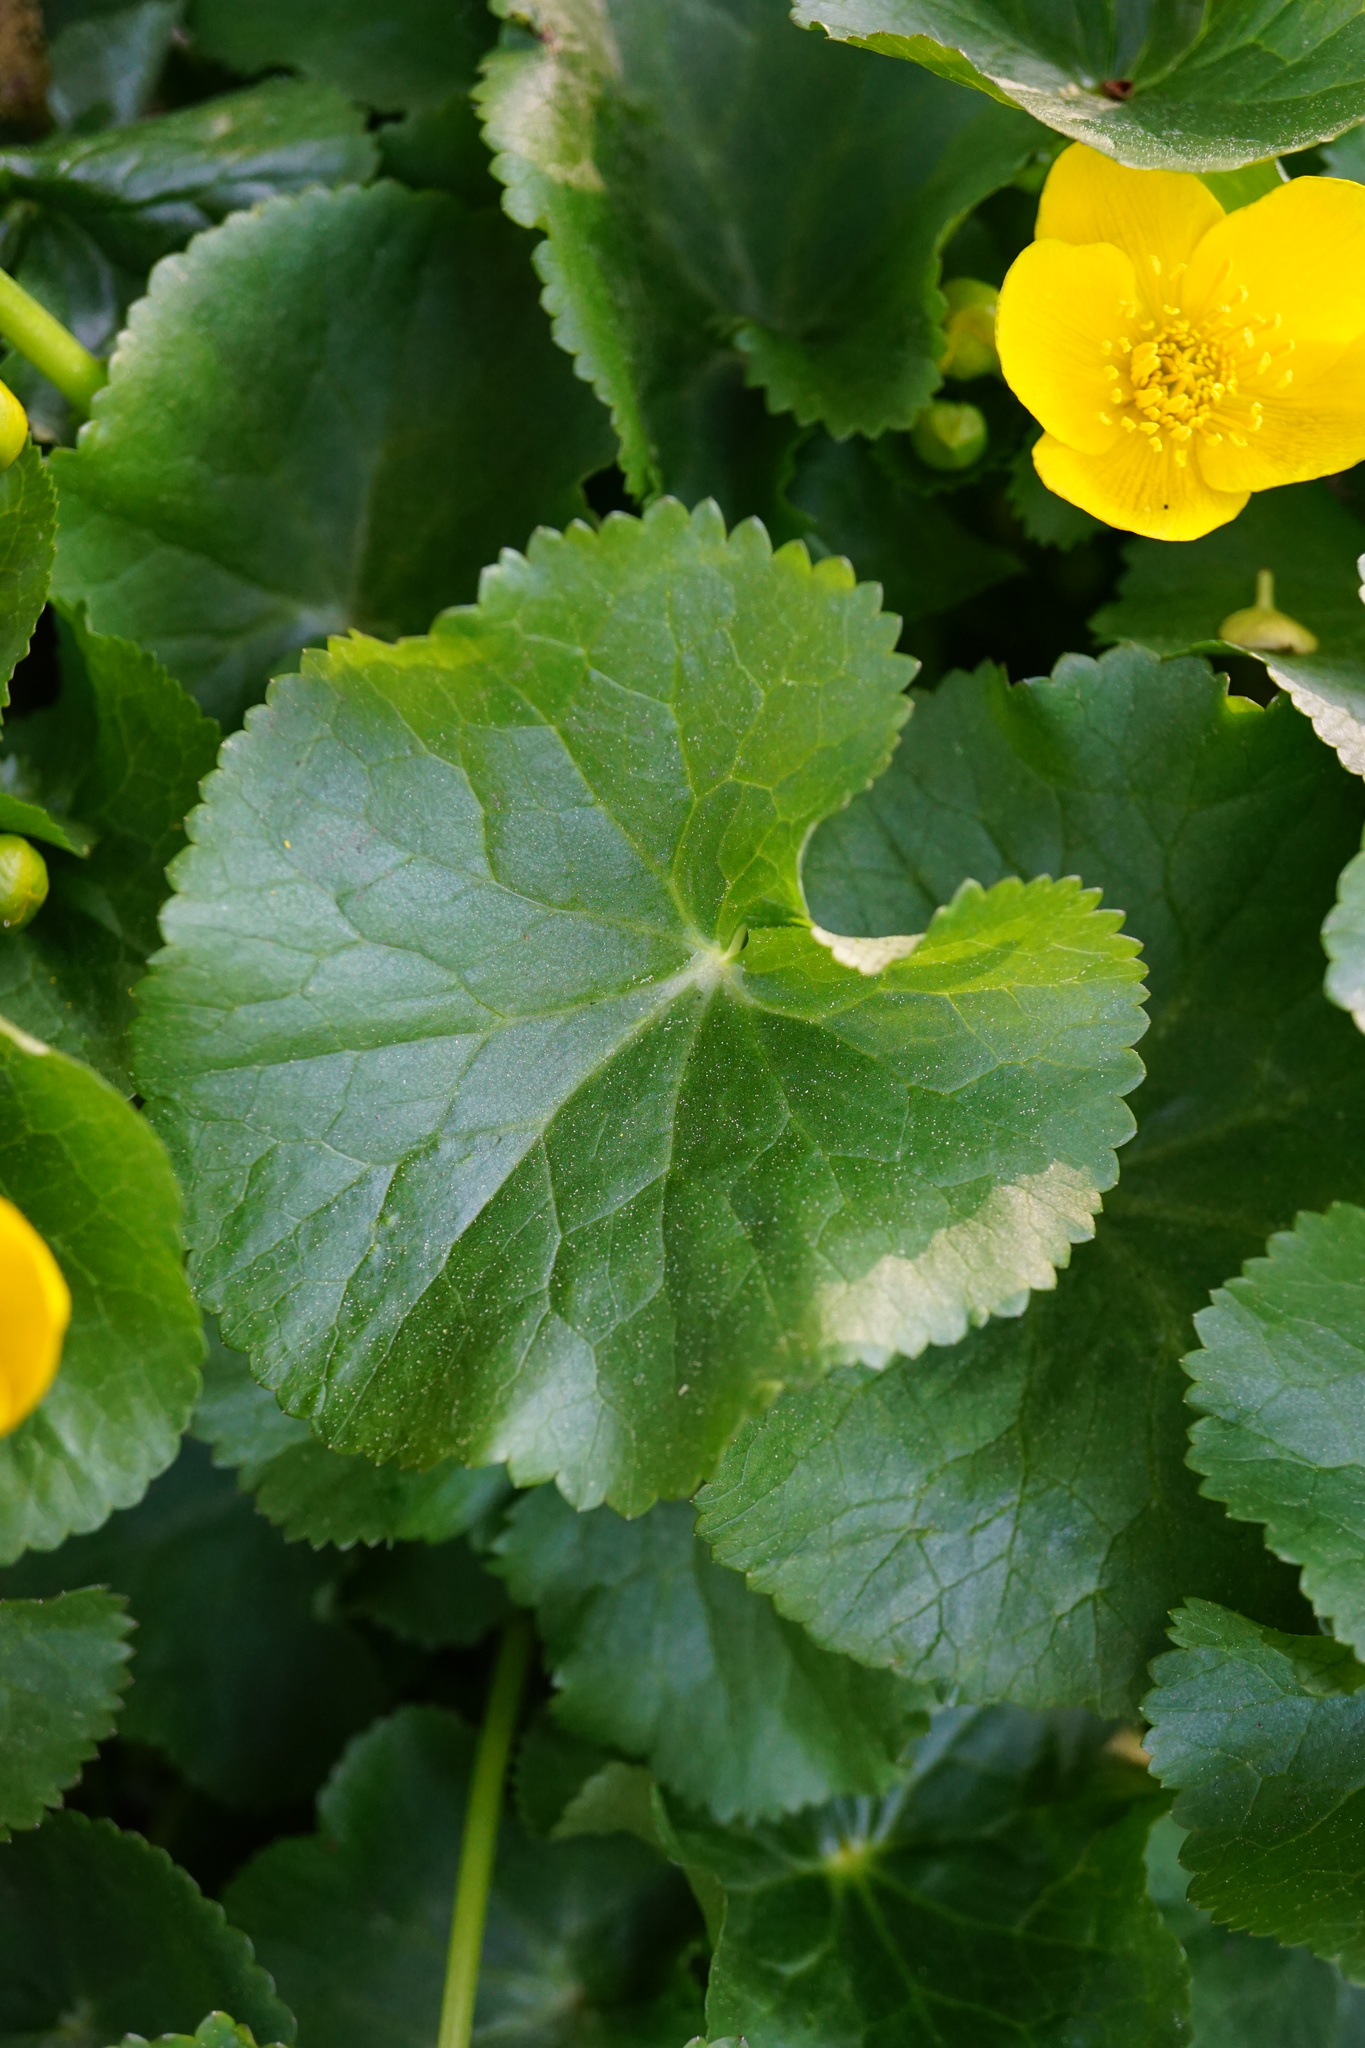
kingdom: Plantae
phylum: Tracheophyta
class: Magnoliopsida
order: Ranunculales
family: Ranunculaceae
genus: Caltha
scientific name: Caltha palustris
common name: Marsh marigold
